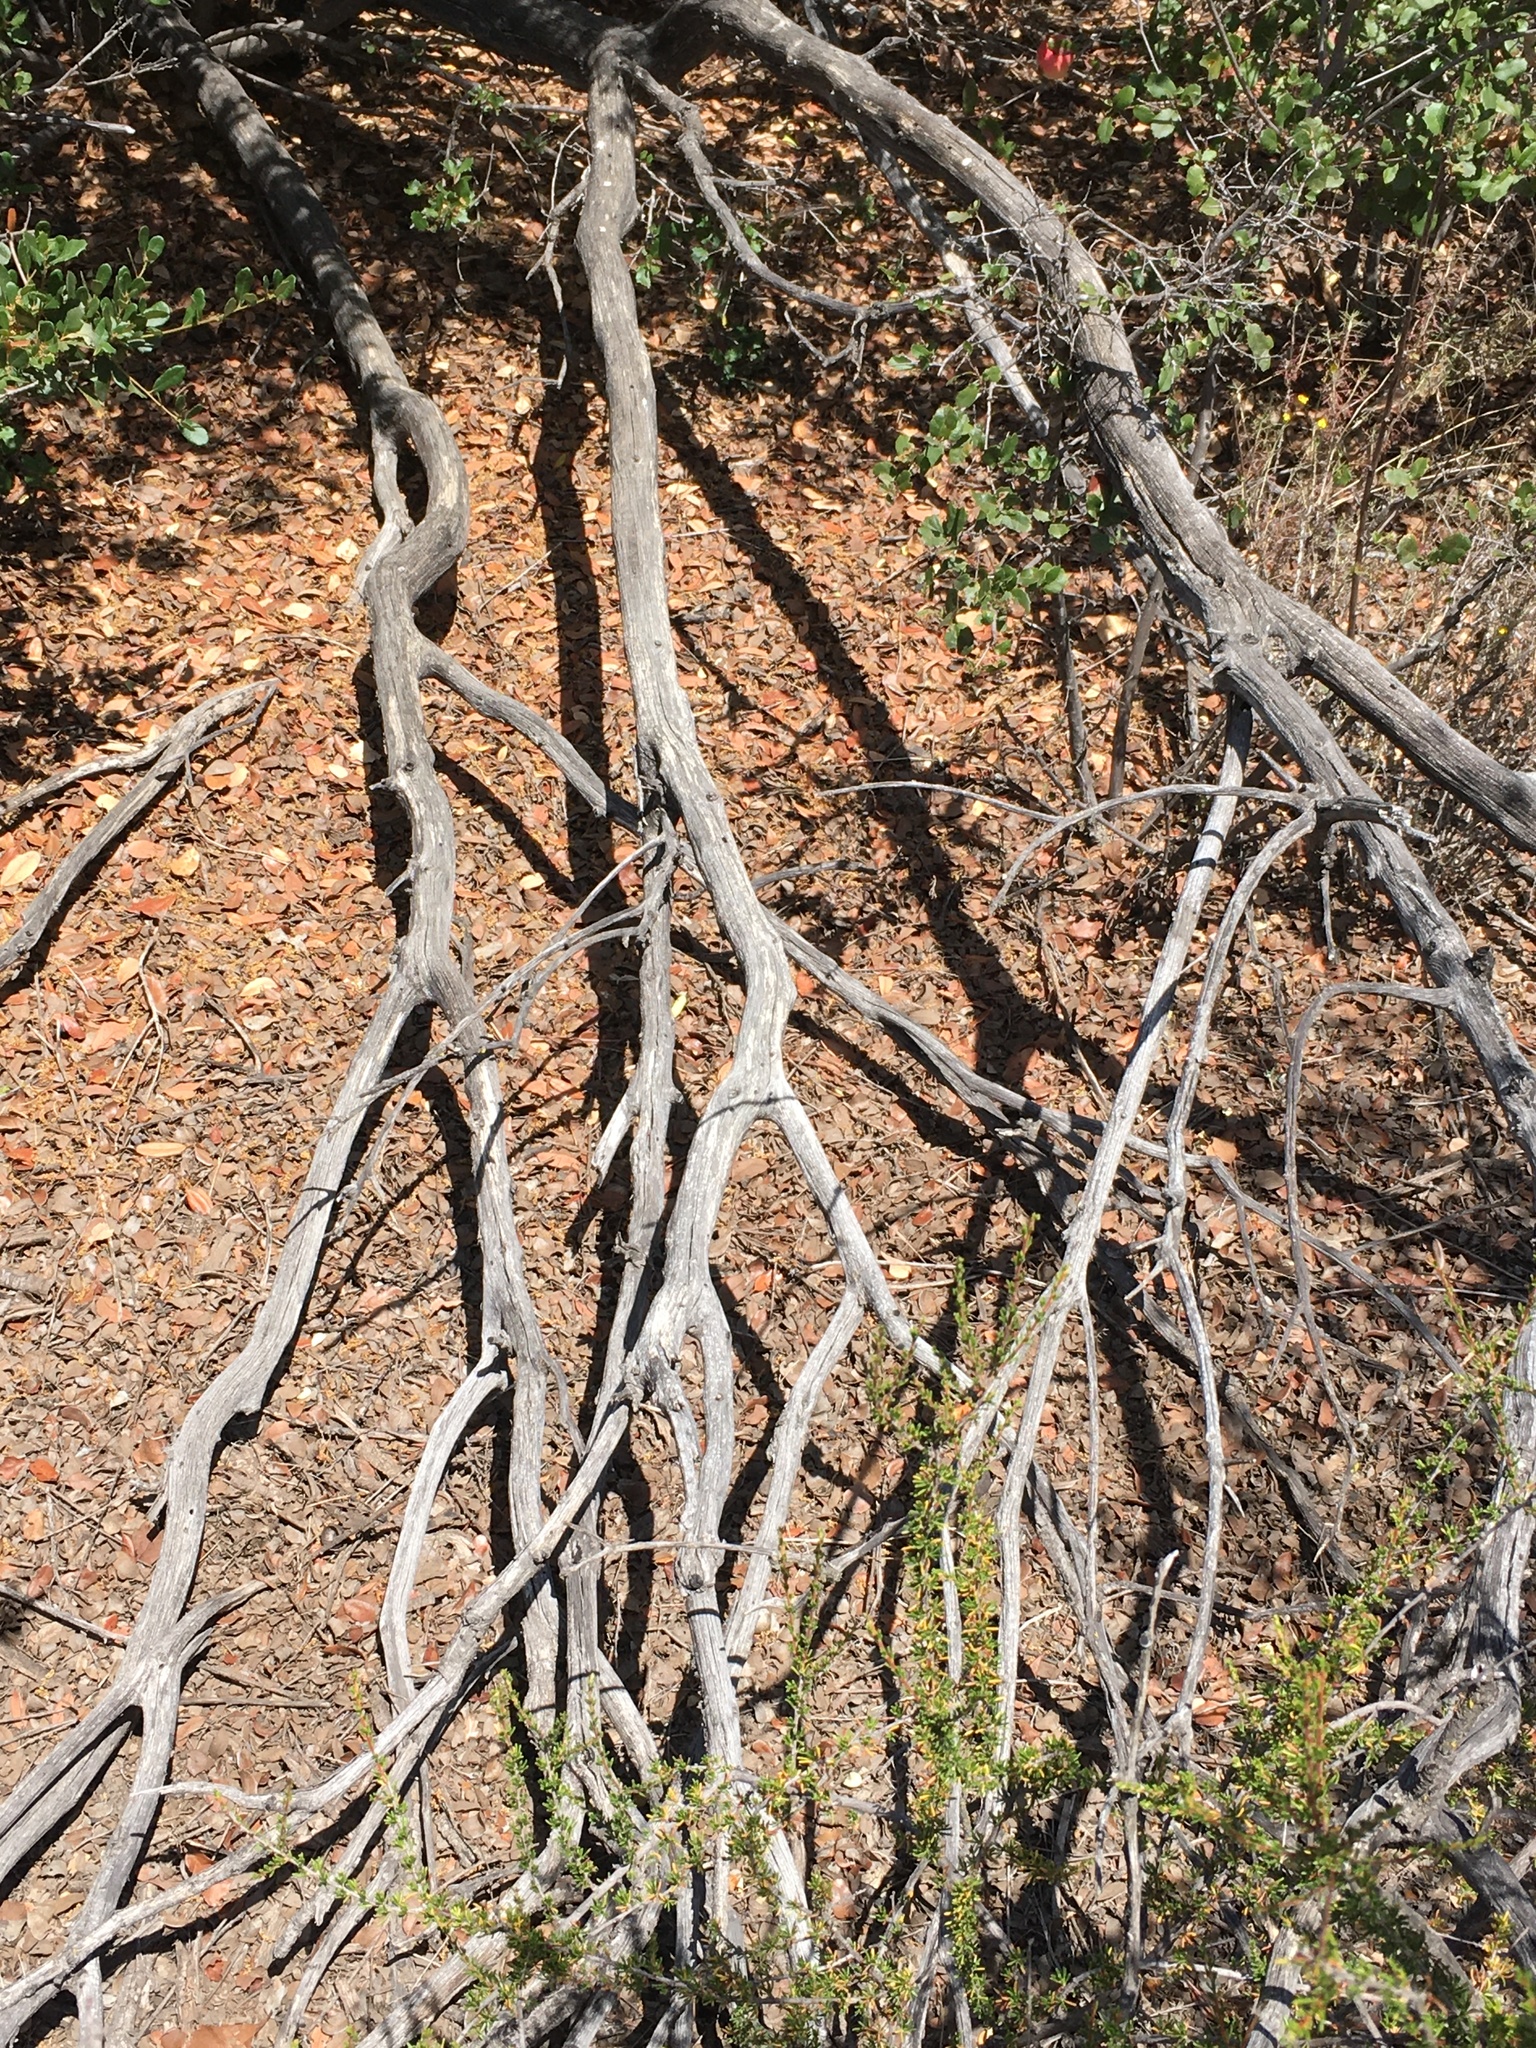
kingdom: Animalia
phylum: Chordata
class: Squamata
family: Teiidae
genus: Aspidoscelis
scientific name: Aspidoscelis hyperythrus
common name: Orange-throated race-runner
